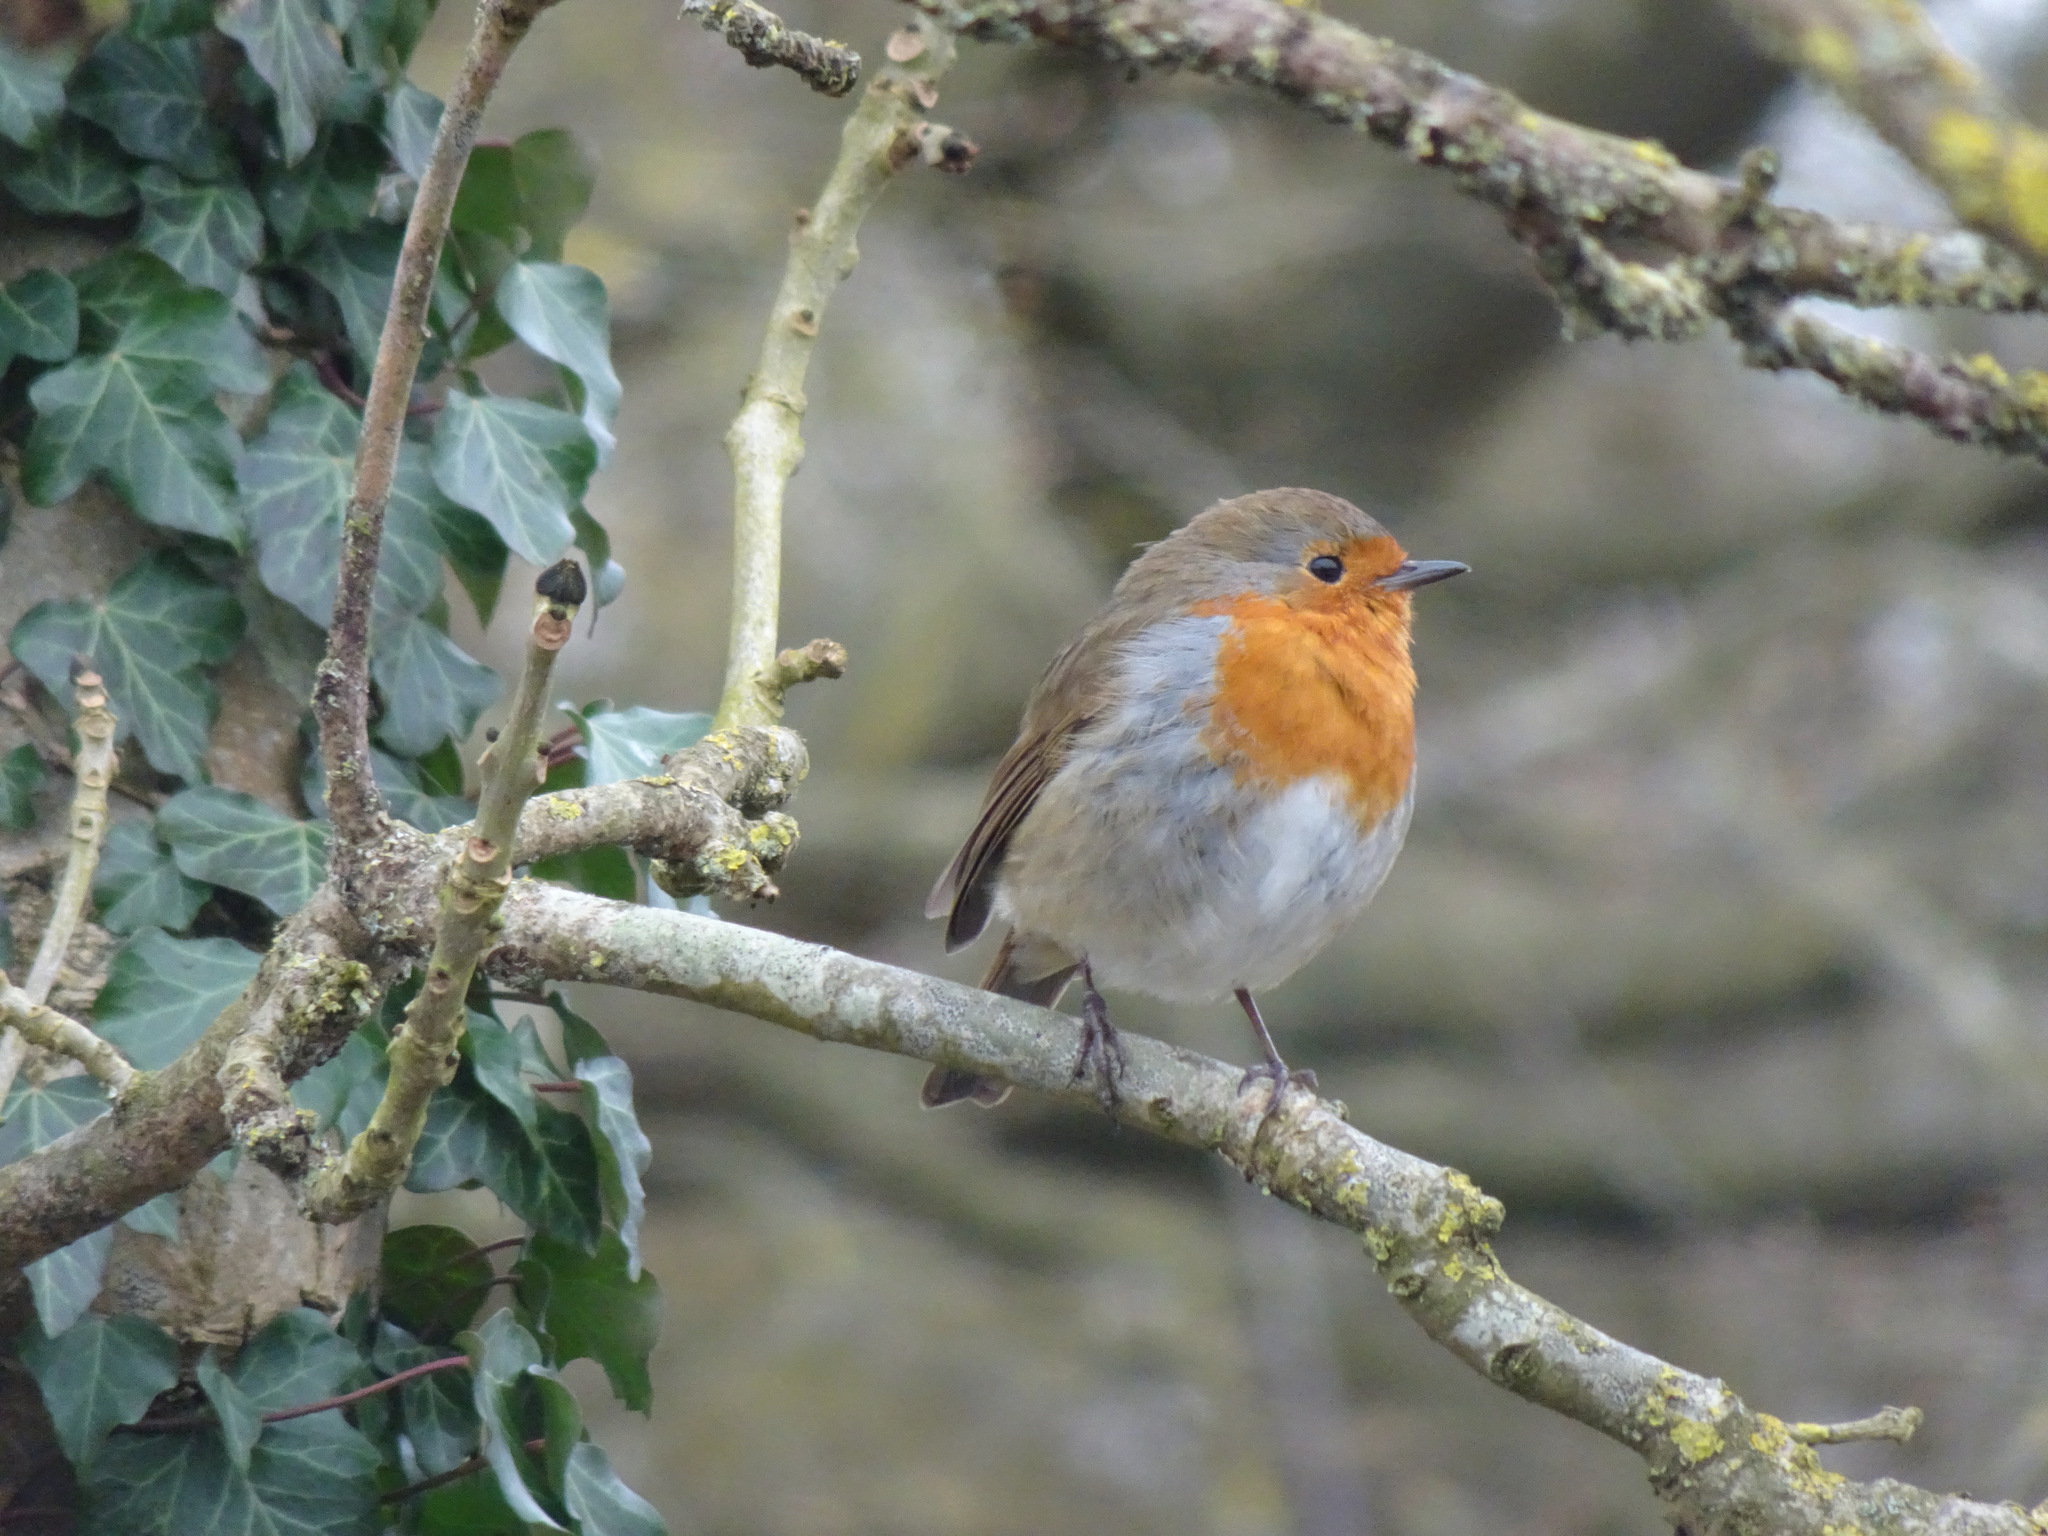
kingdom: Animalia
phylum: Chordata
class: Aves
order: Passeriformes
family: Muscicapidae
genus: Erithacus
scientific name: Erithacus rubecula
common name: European robin
